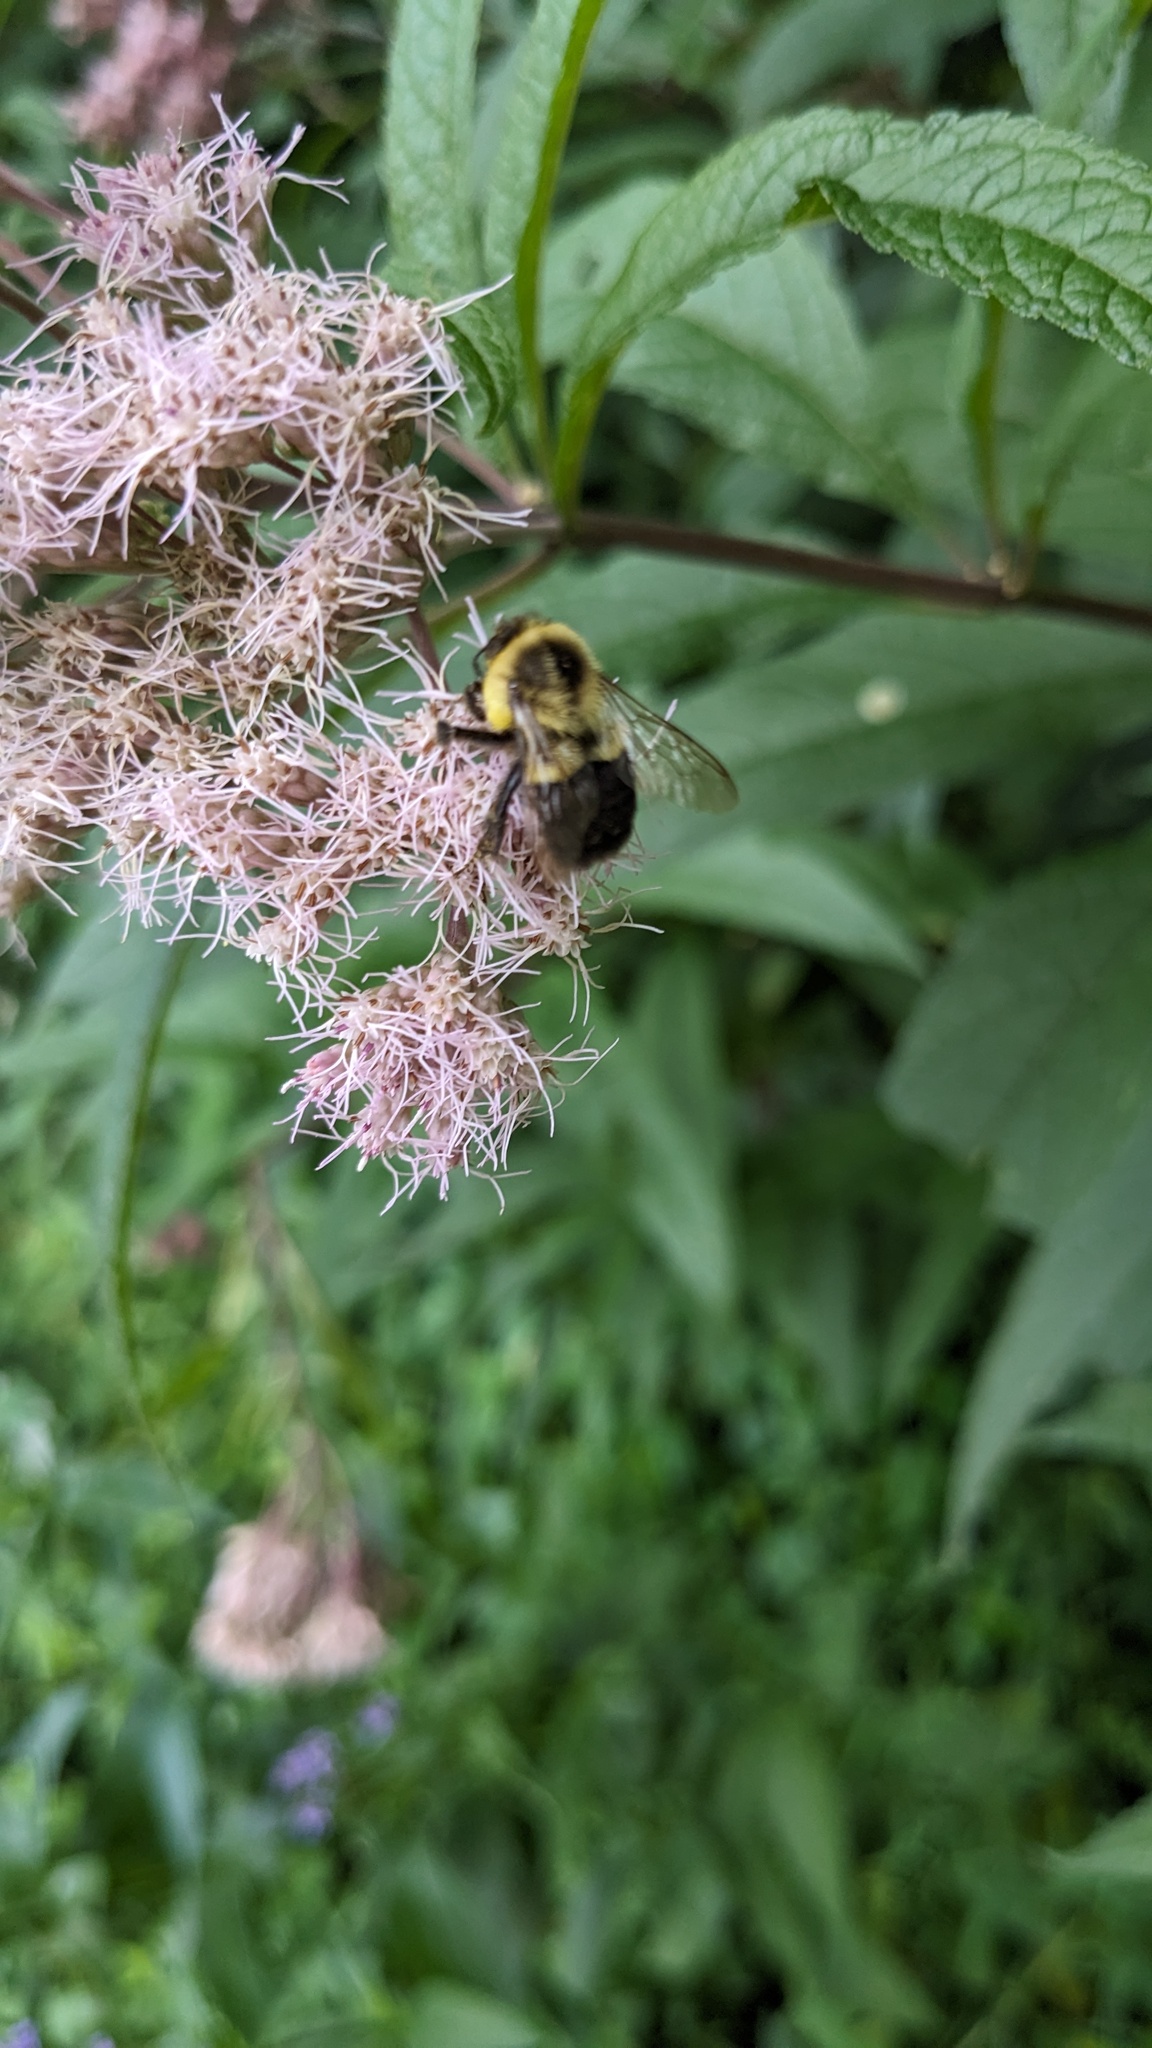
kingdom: Animalia
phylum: Arthropoda
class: Insecta
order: Hymenoptera
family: Apidae
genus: Bombus
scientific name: Bombus impatiens
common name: Common eastern bumble bee
